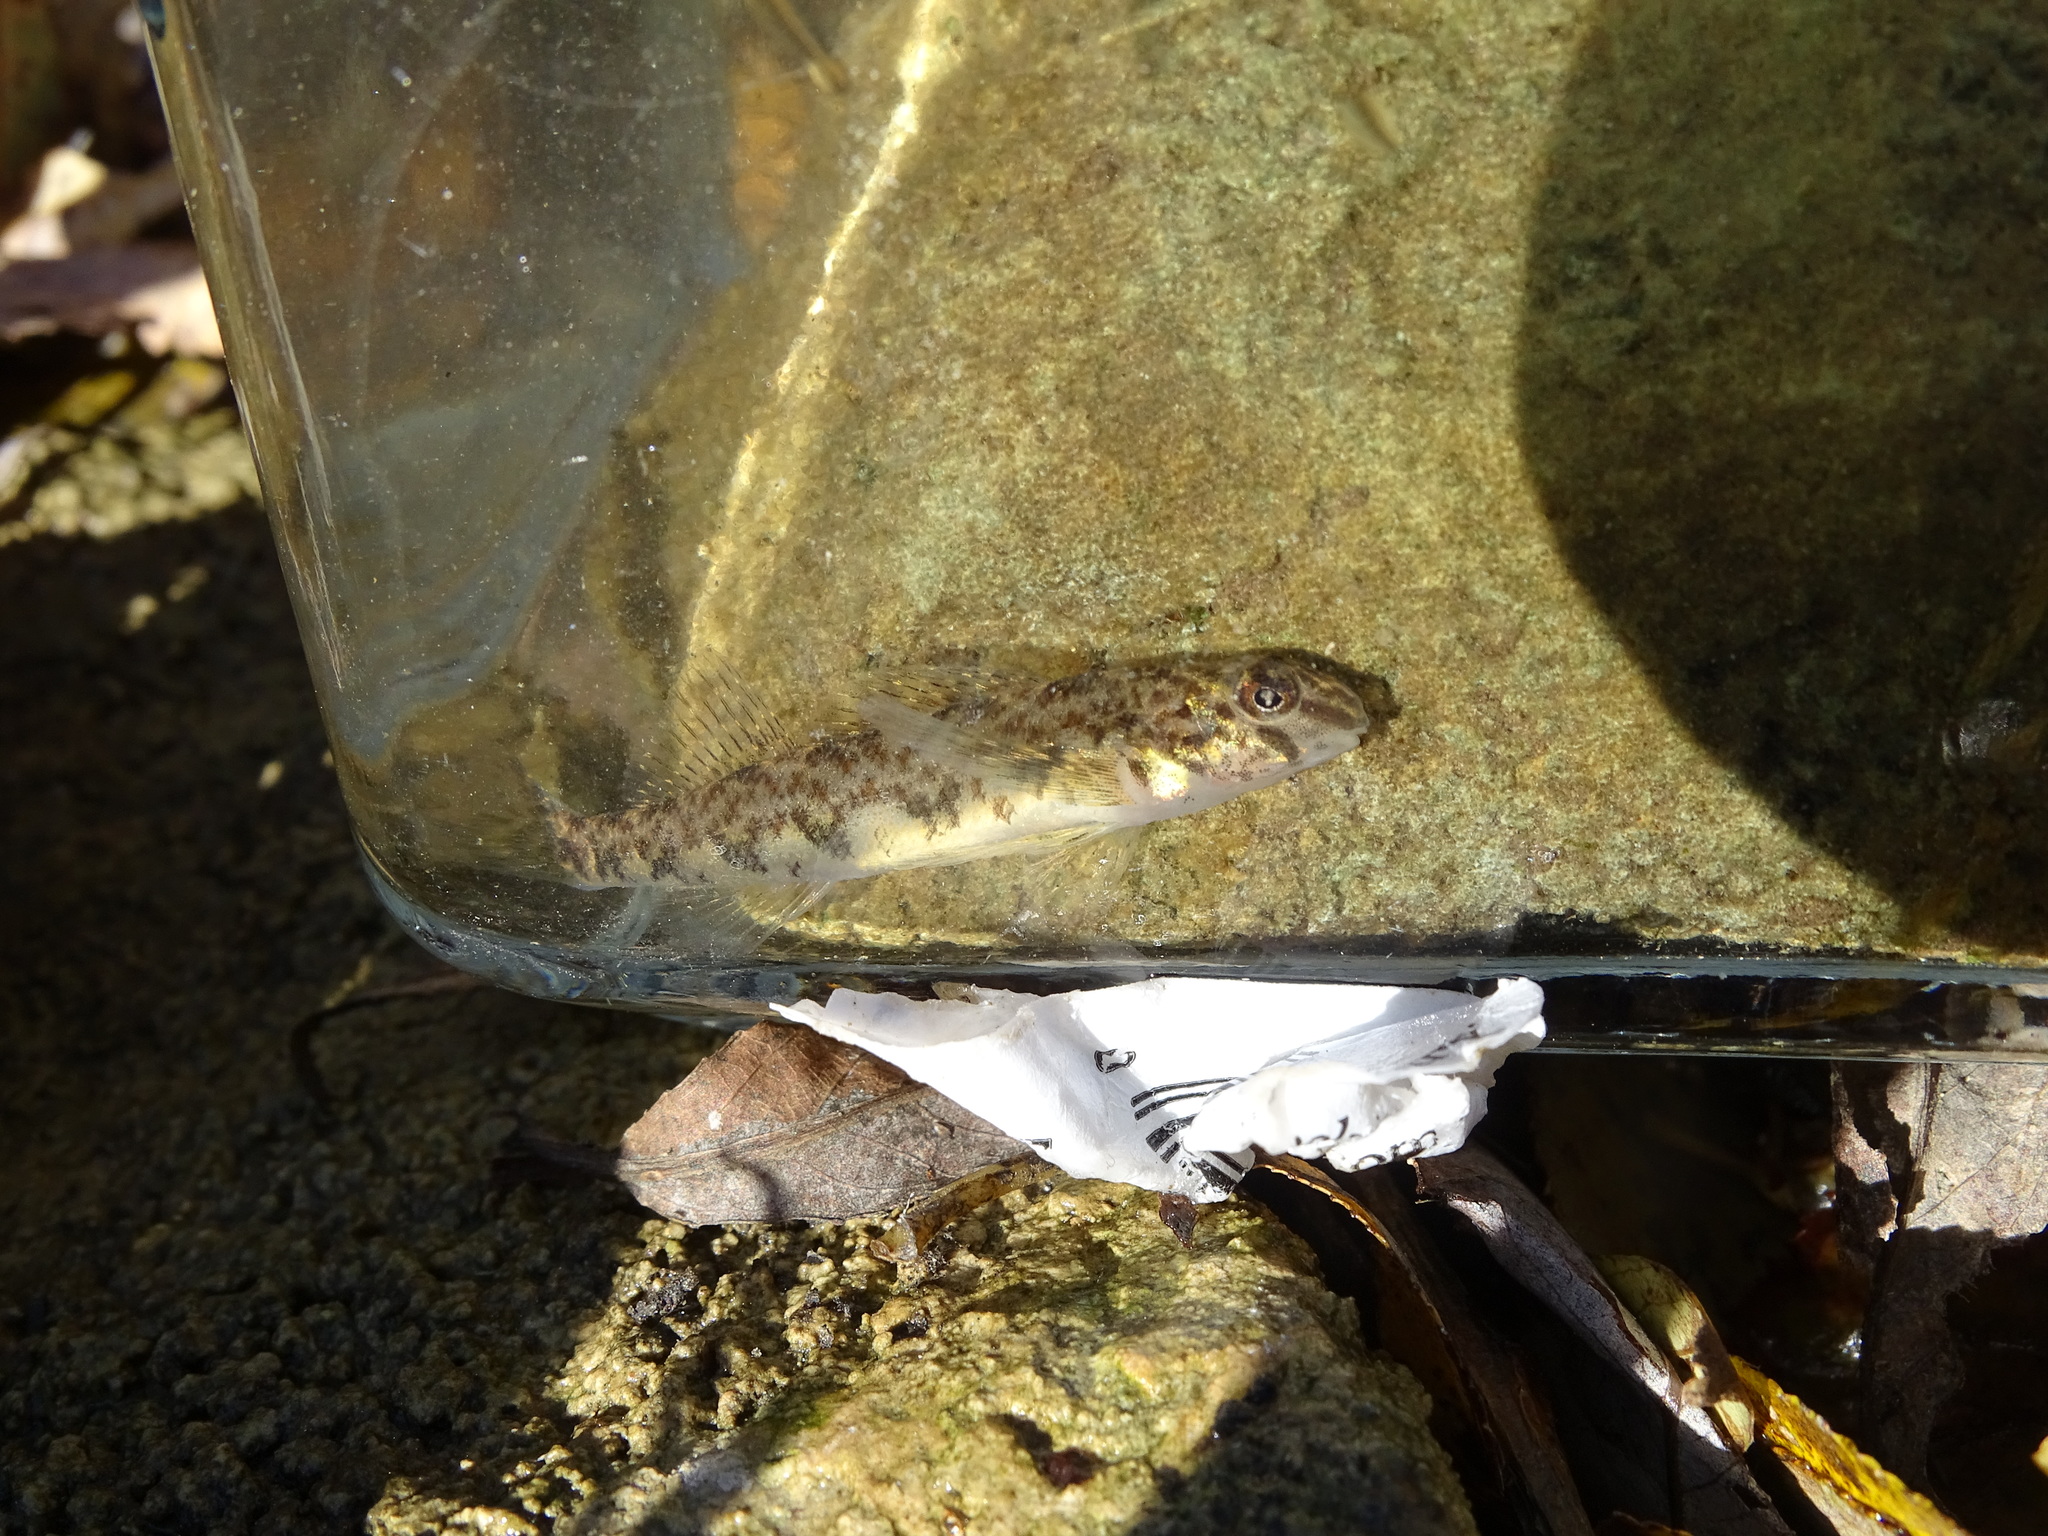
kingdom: Animalia
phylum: Chordata
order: Perciformes
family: Percidae
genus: Etheostoma
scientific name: Etheostoma blennioides
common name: Greenside darter
